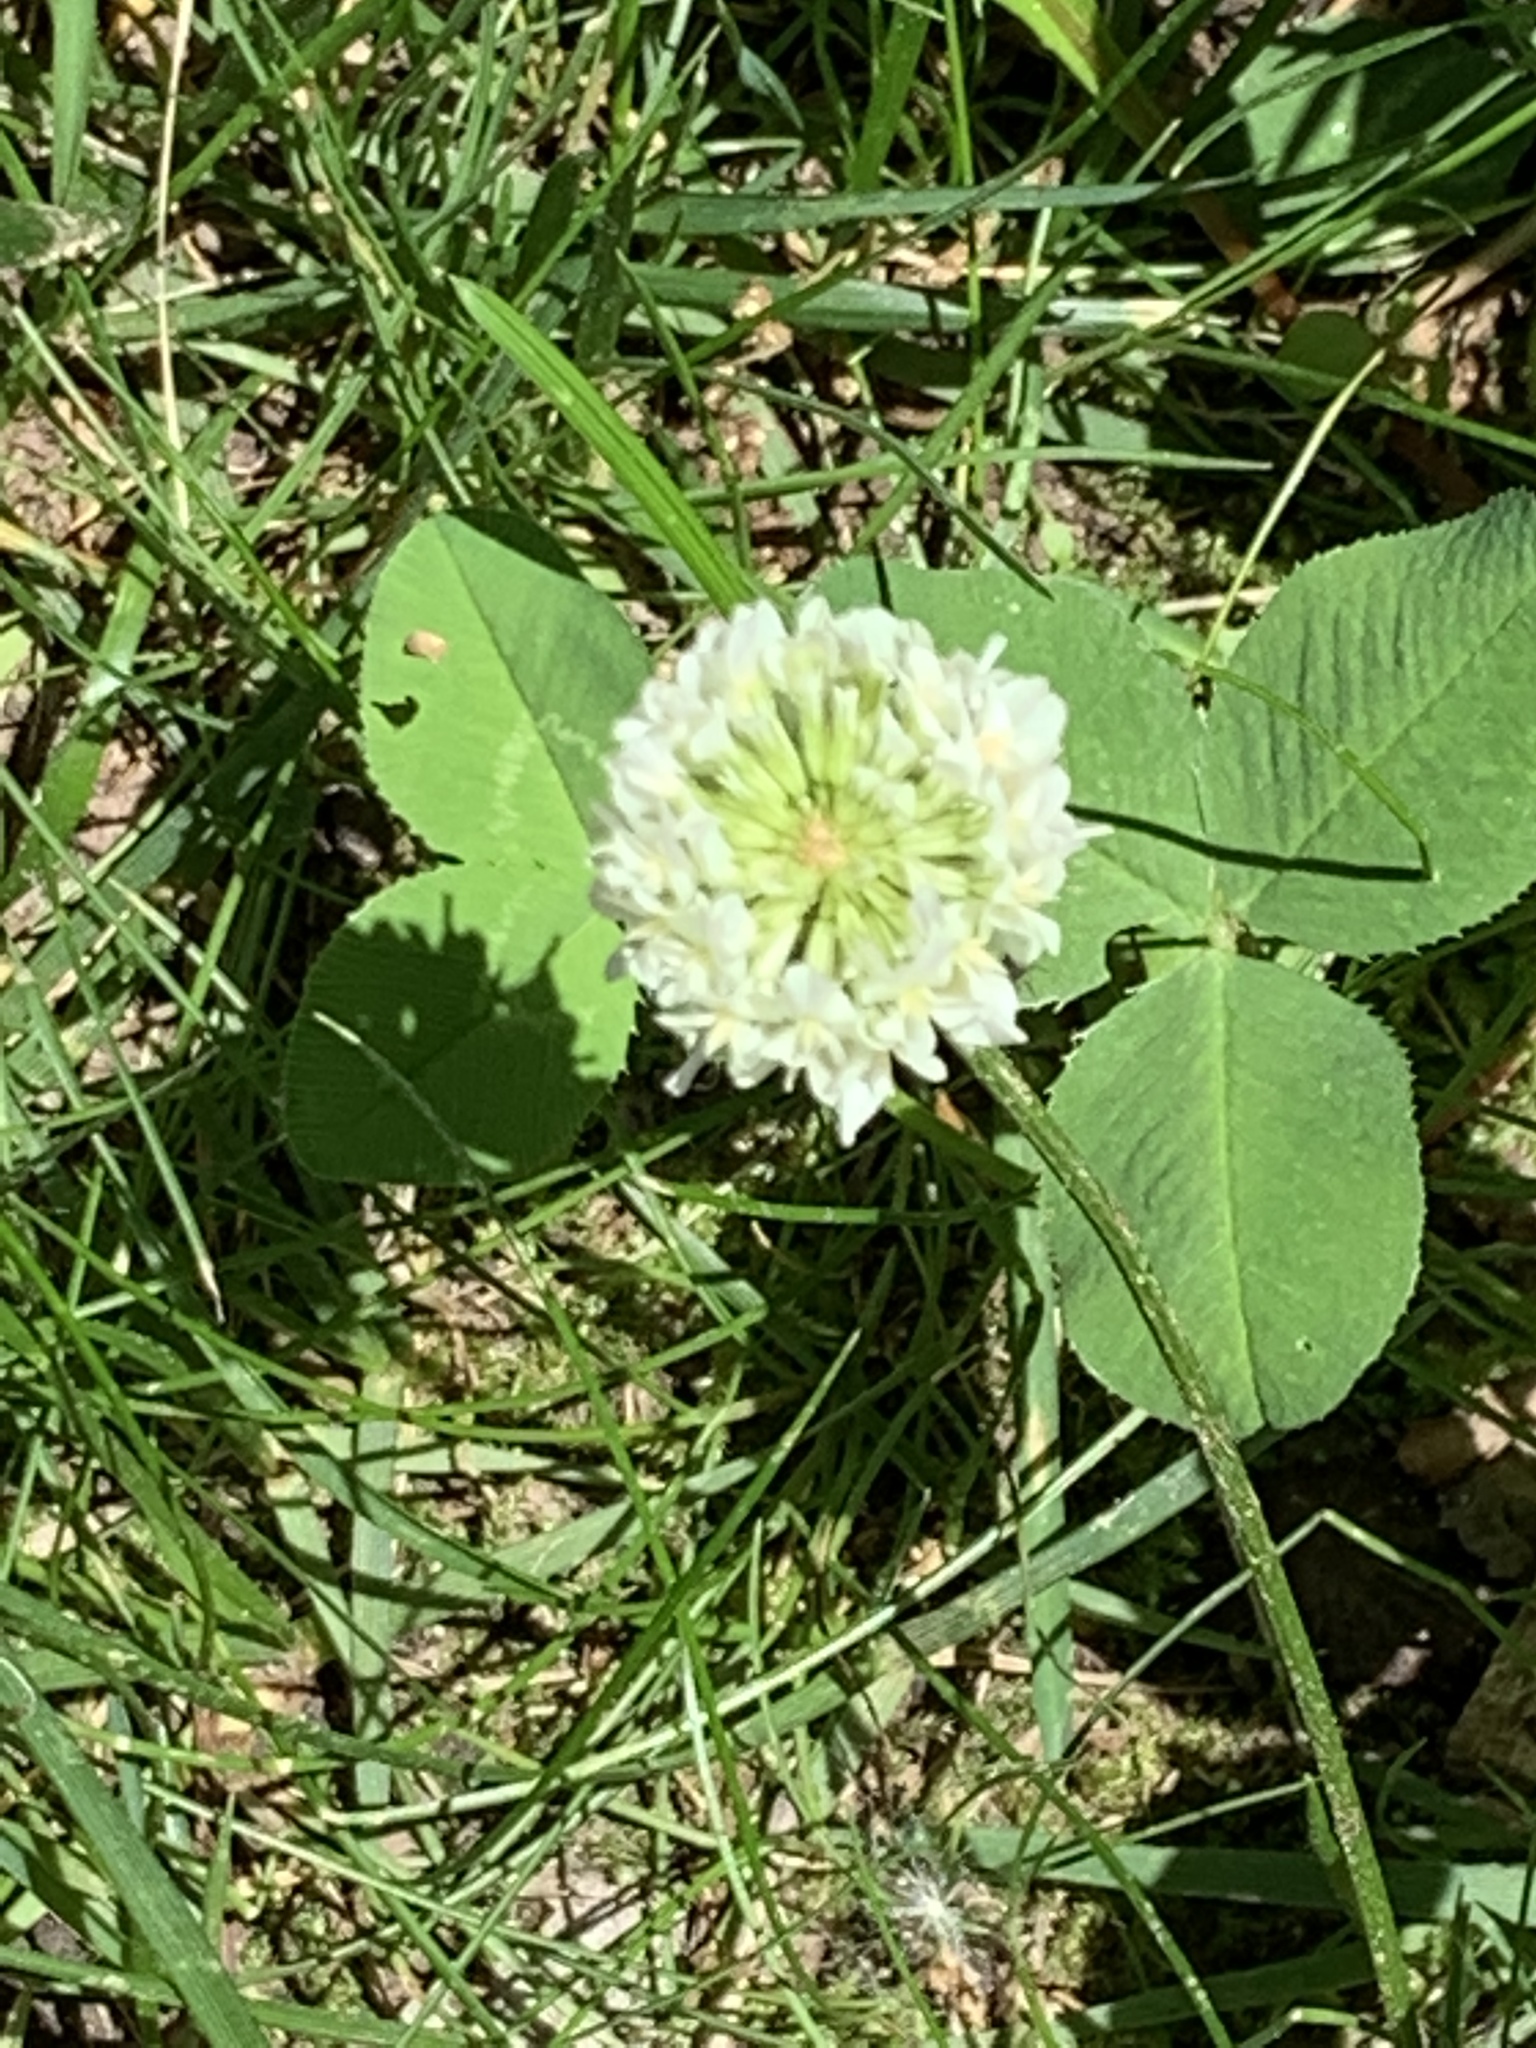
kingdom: Plantae
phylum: Tracheophyta
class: Magnoliopsida
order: Fabales
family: Fabaceae
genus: Trifolium
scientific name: Trifolium repens
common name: White clover
